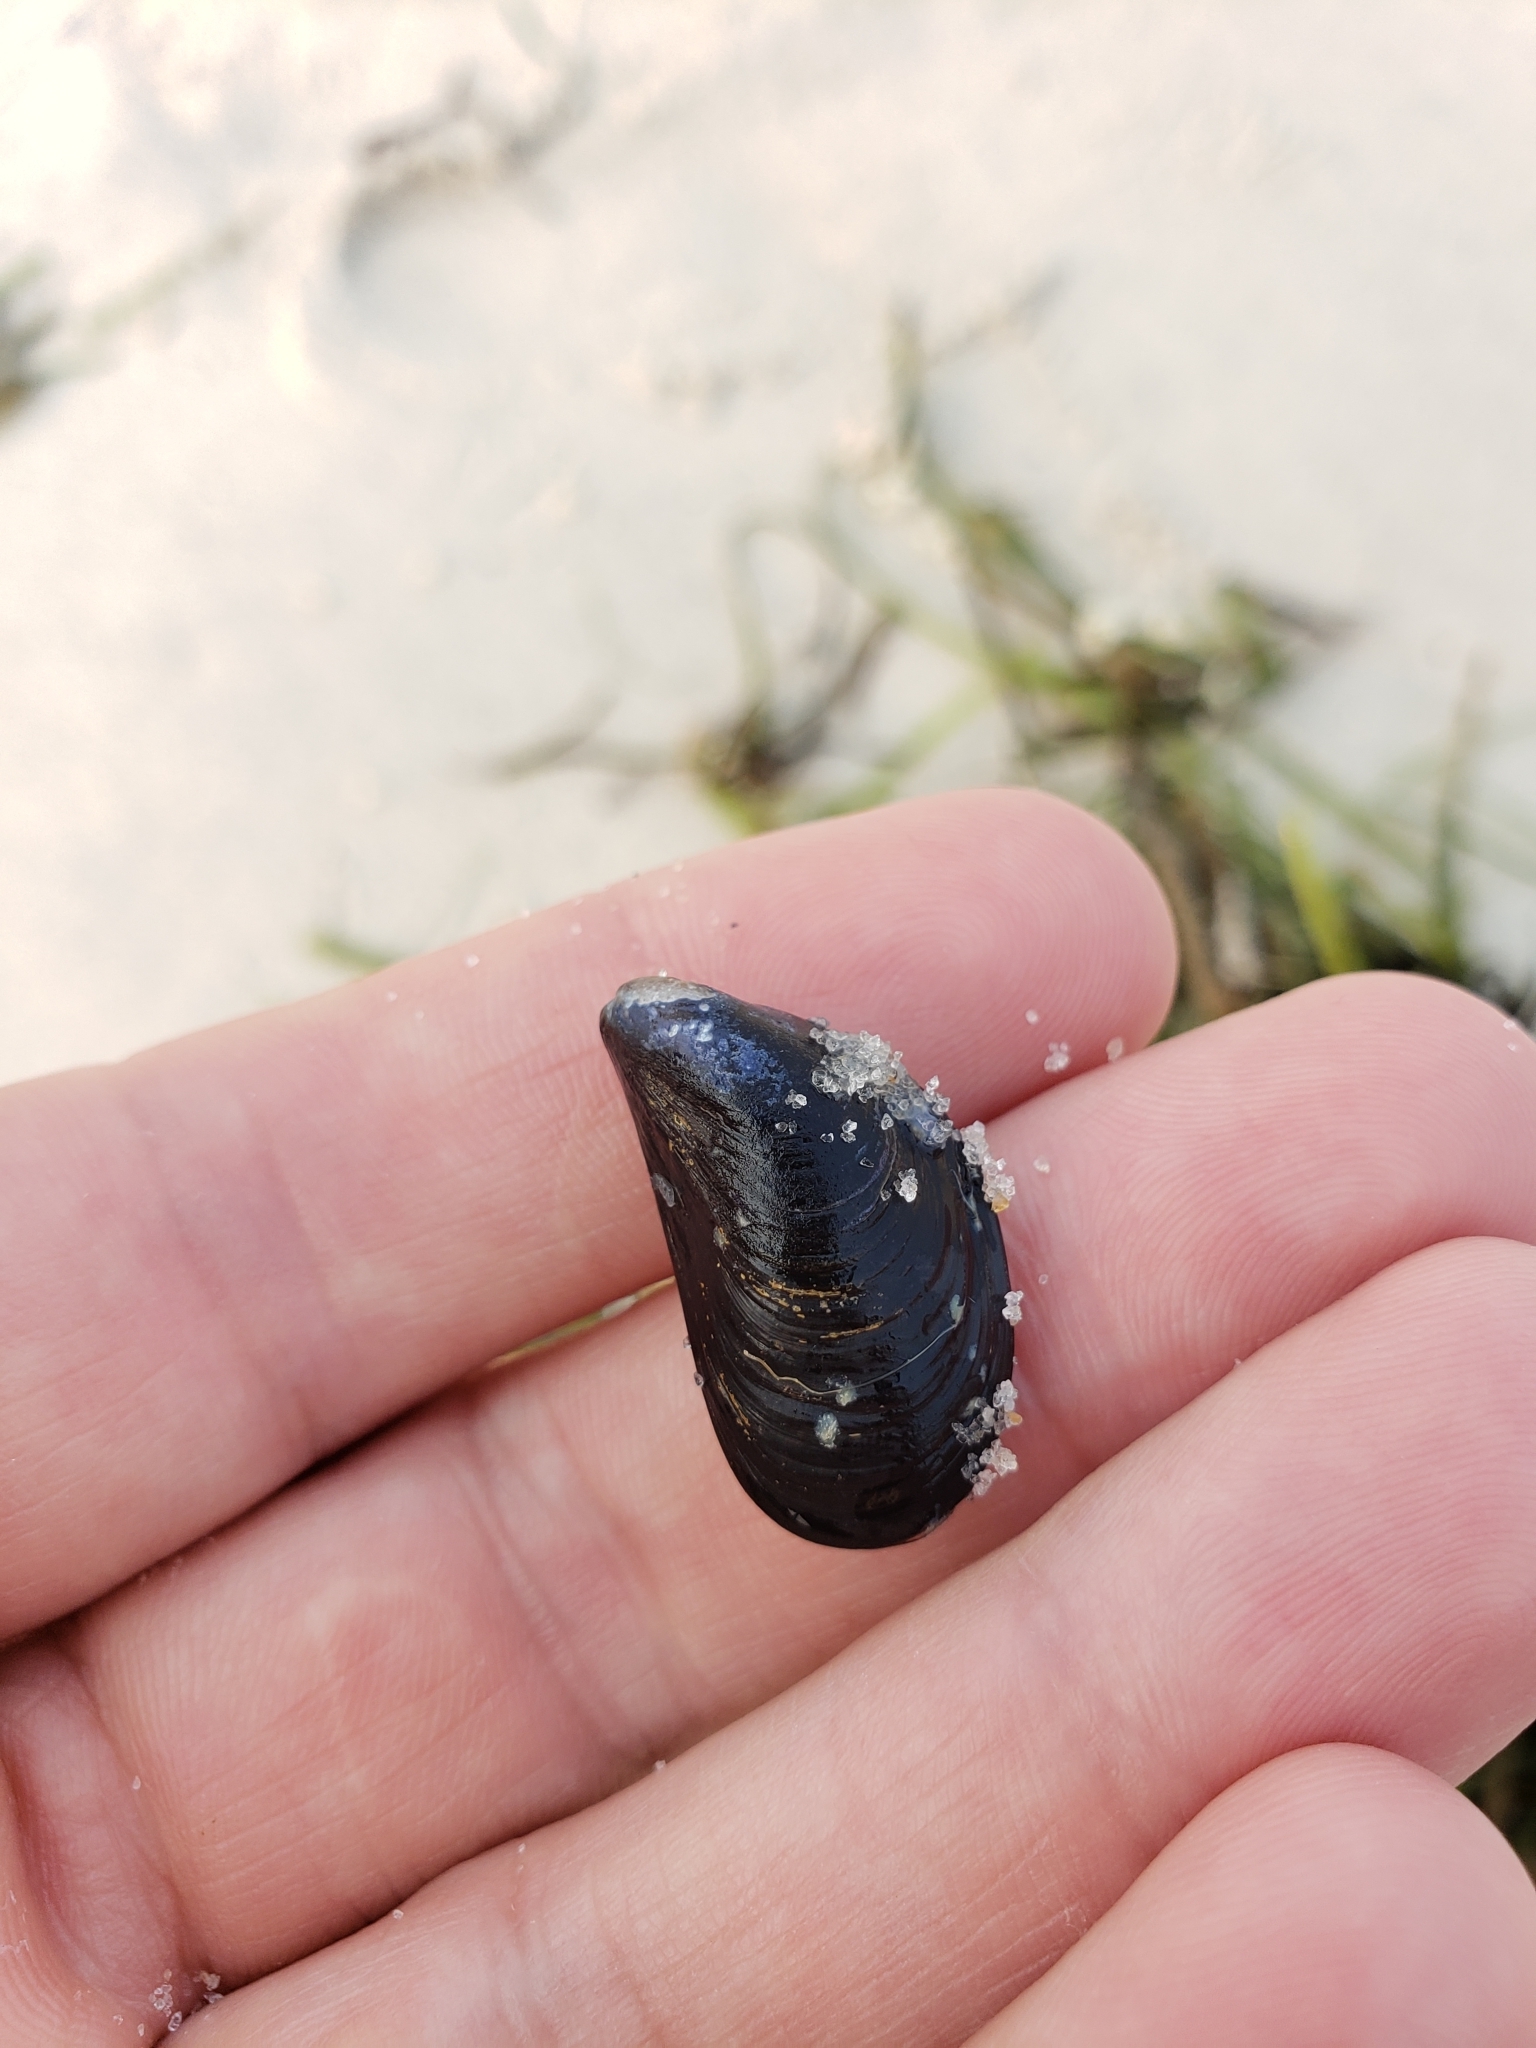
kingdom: Animalia
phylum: Mollusca
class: Bivalvia
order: Mytilida
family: Mytilidae
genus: Mytilus
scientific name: Mytilus edulis
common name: Blue mussel
